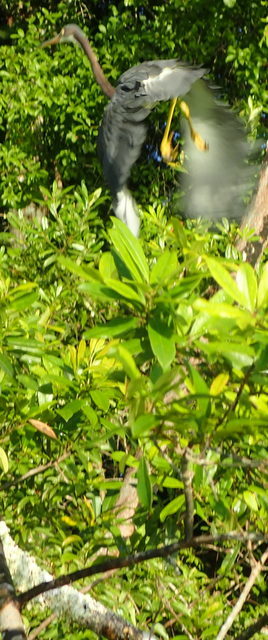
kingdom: Animalia
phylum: Chordata
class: Aves
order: Pelecaniformes
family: Ardeidae
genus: Egretta
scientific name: Egretta tricolor
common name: Tricolored heron
